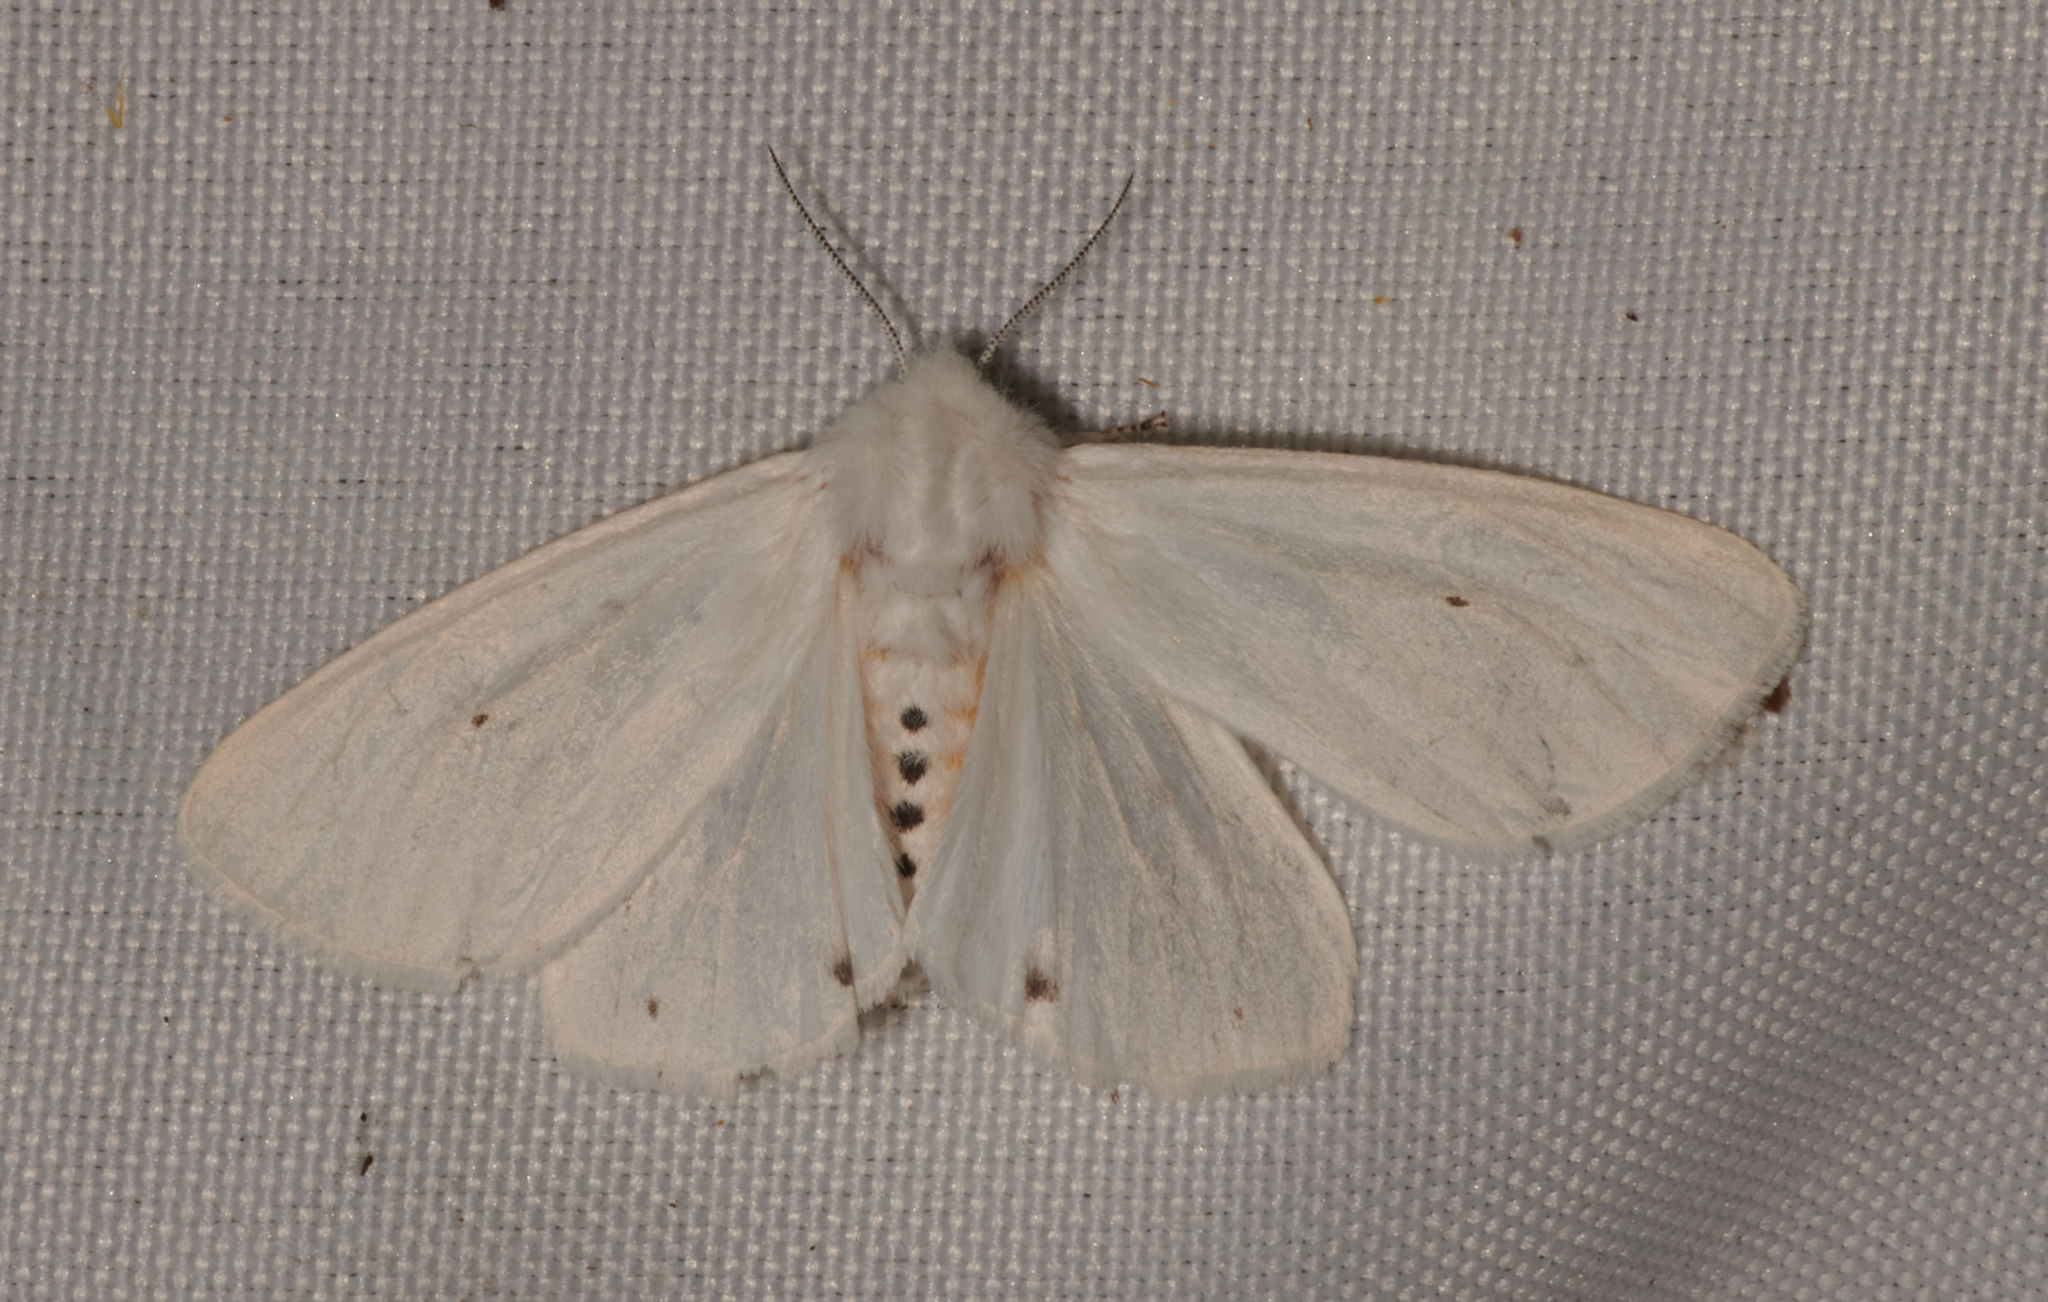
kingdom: Animalia
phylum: Arthropoda
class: Insecta
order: Lepidoptera
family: Erebidae
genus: Spilosoma
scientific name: Spilosoma virginica
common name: Virginia tiger moth
